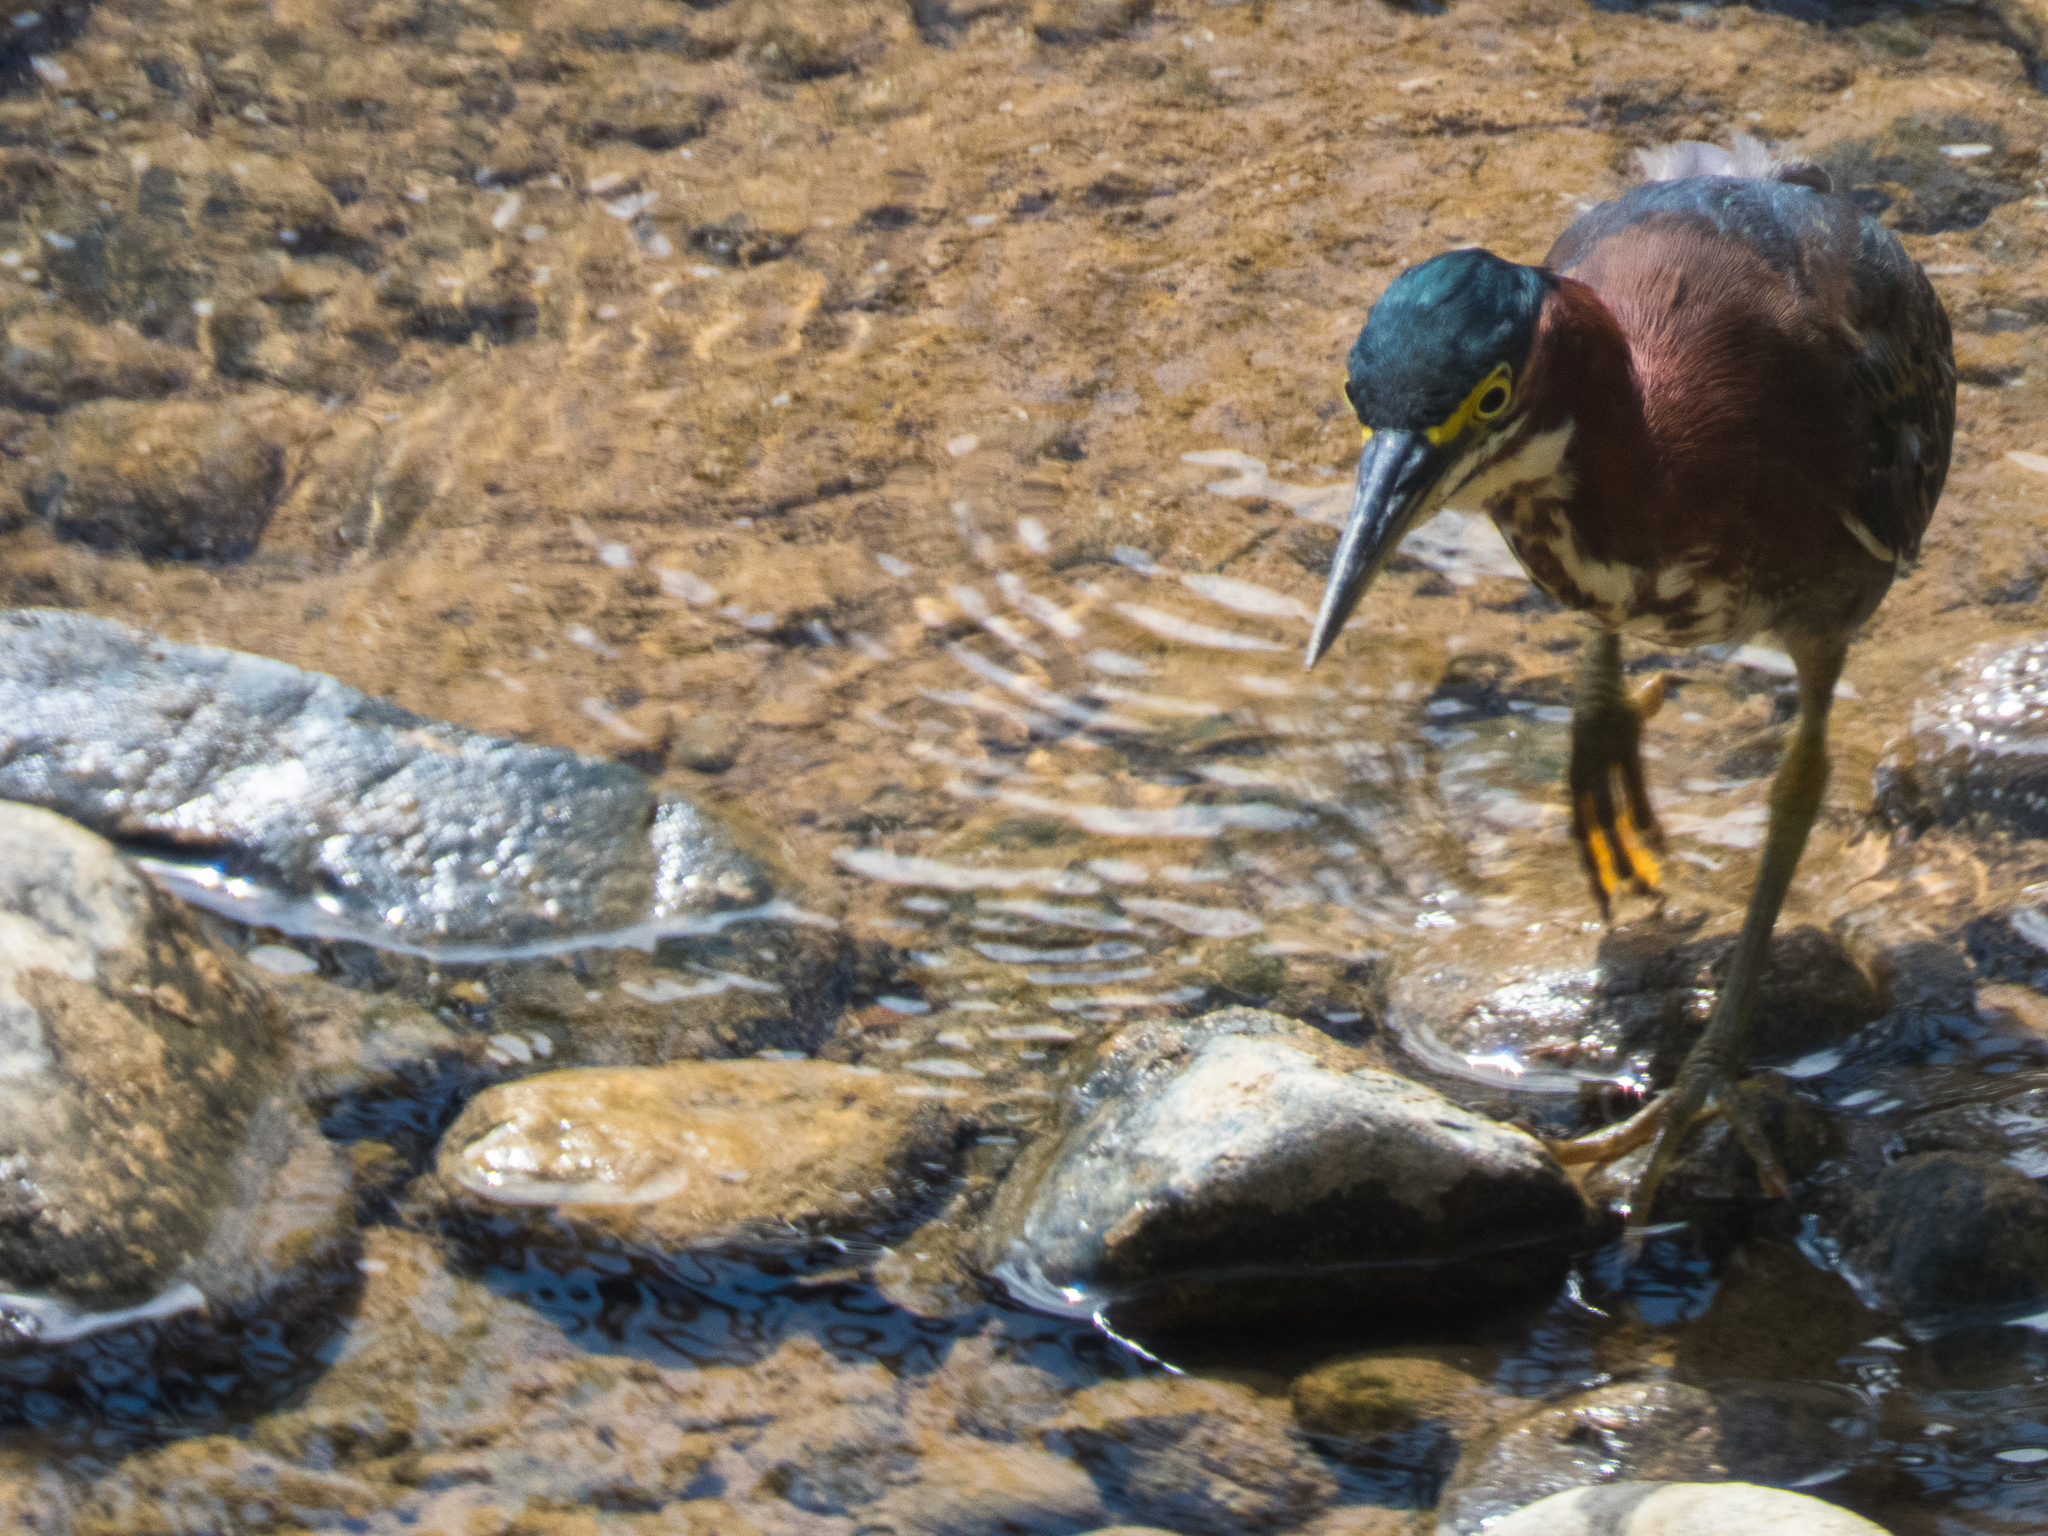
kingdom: Animalia
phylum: Chordata
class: Aves
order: Pelecaniformes
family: Ardeidae
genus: Butorides
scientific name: Butorides virescens
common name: Green heron
